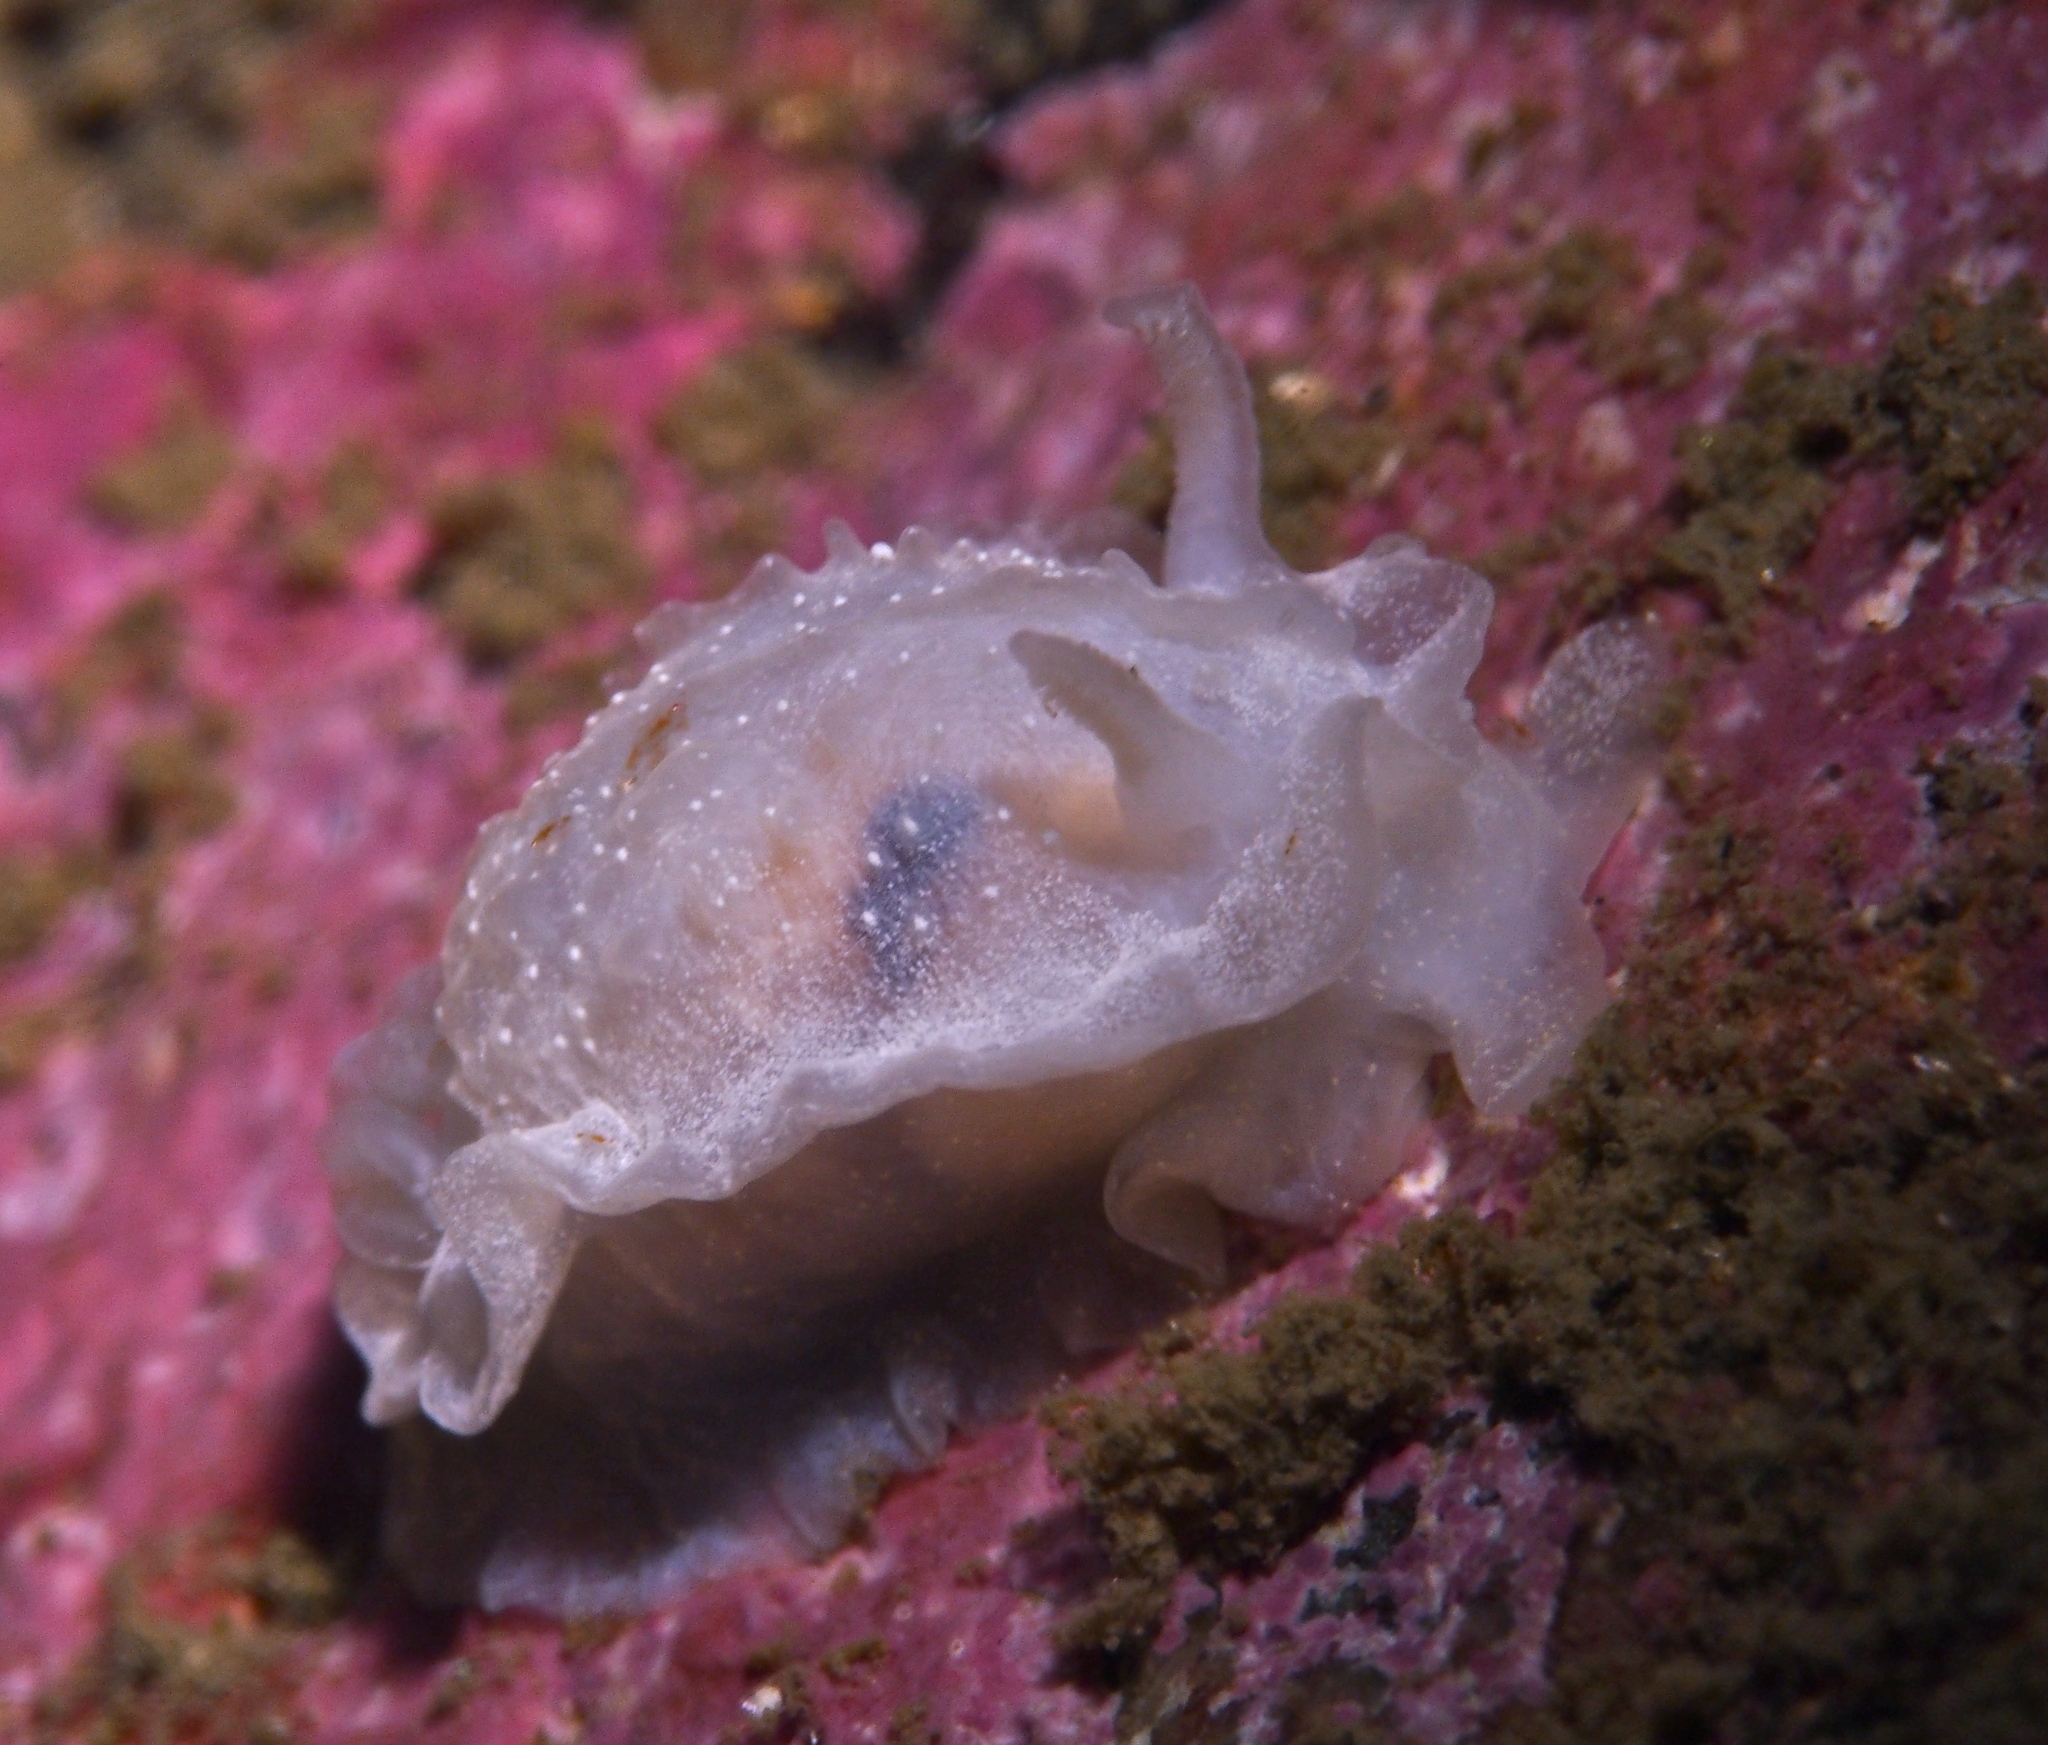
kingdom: Animalia
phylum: Mollusca
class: Gastropoda
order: Nudibranchia
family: Goniodorididae
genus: Okenia
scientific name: Okenia
